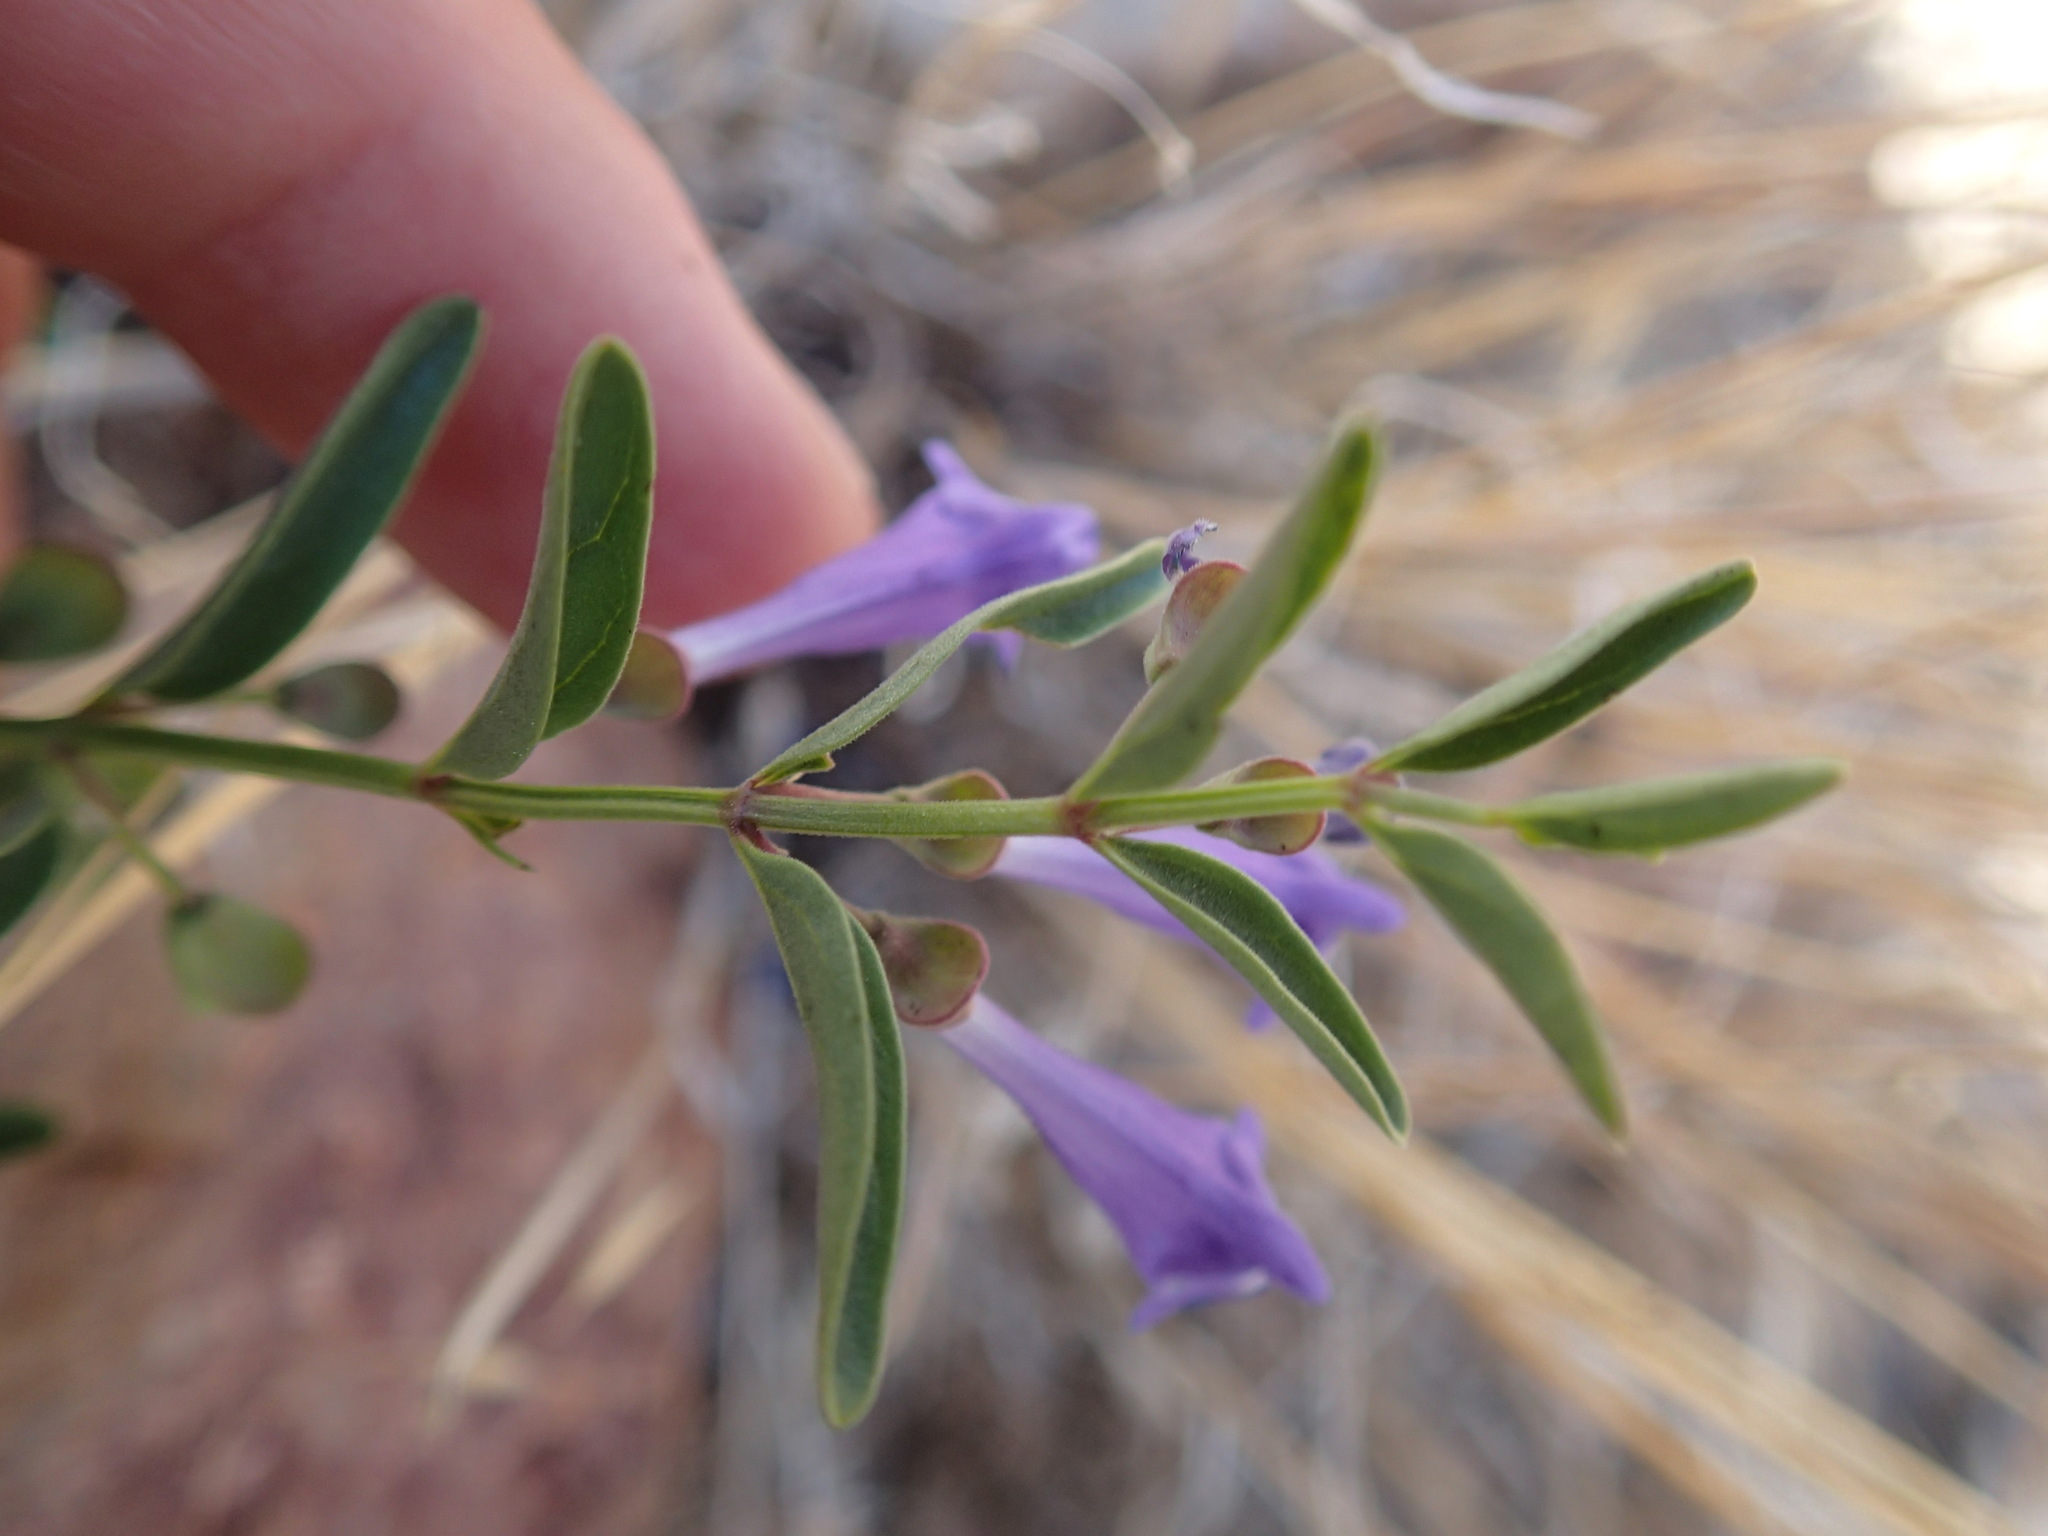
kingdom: Plantae
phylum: Tracheophyta
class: Magnoliopsida
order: Lamiales
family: Lamiaceae
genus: Scutellaria
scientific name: Scutellaria angustifolia
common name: Narrow-leaved skullcap
